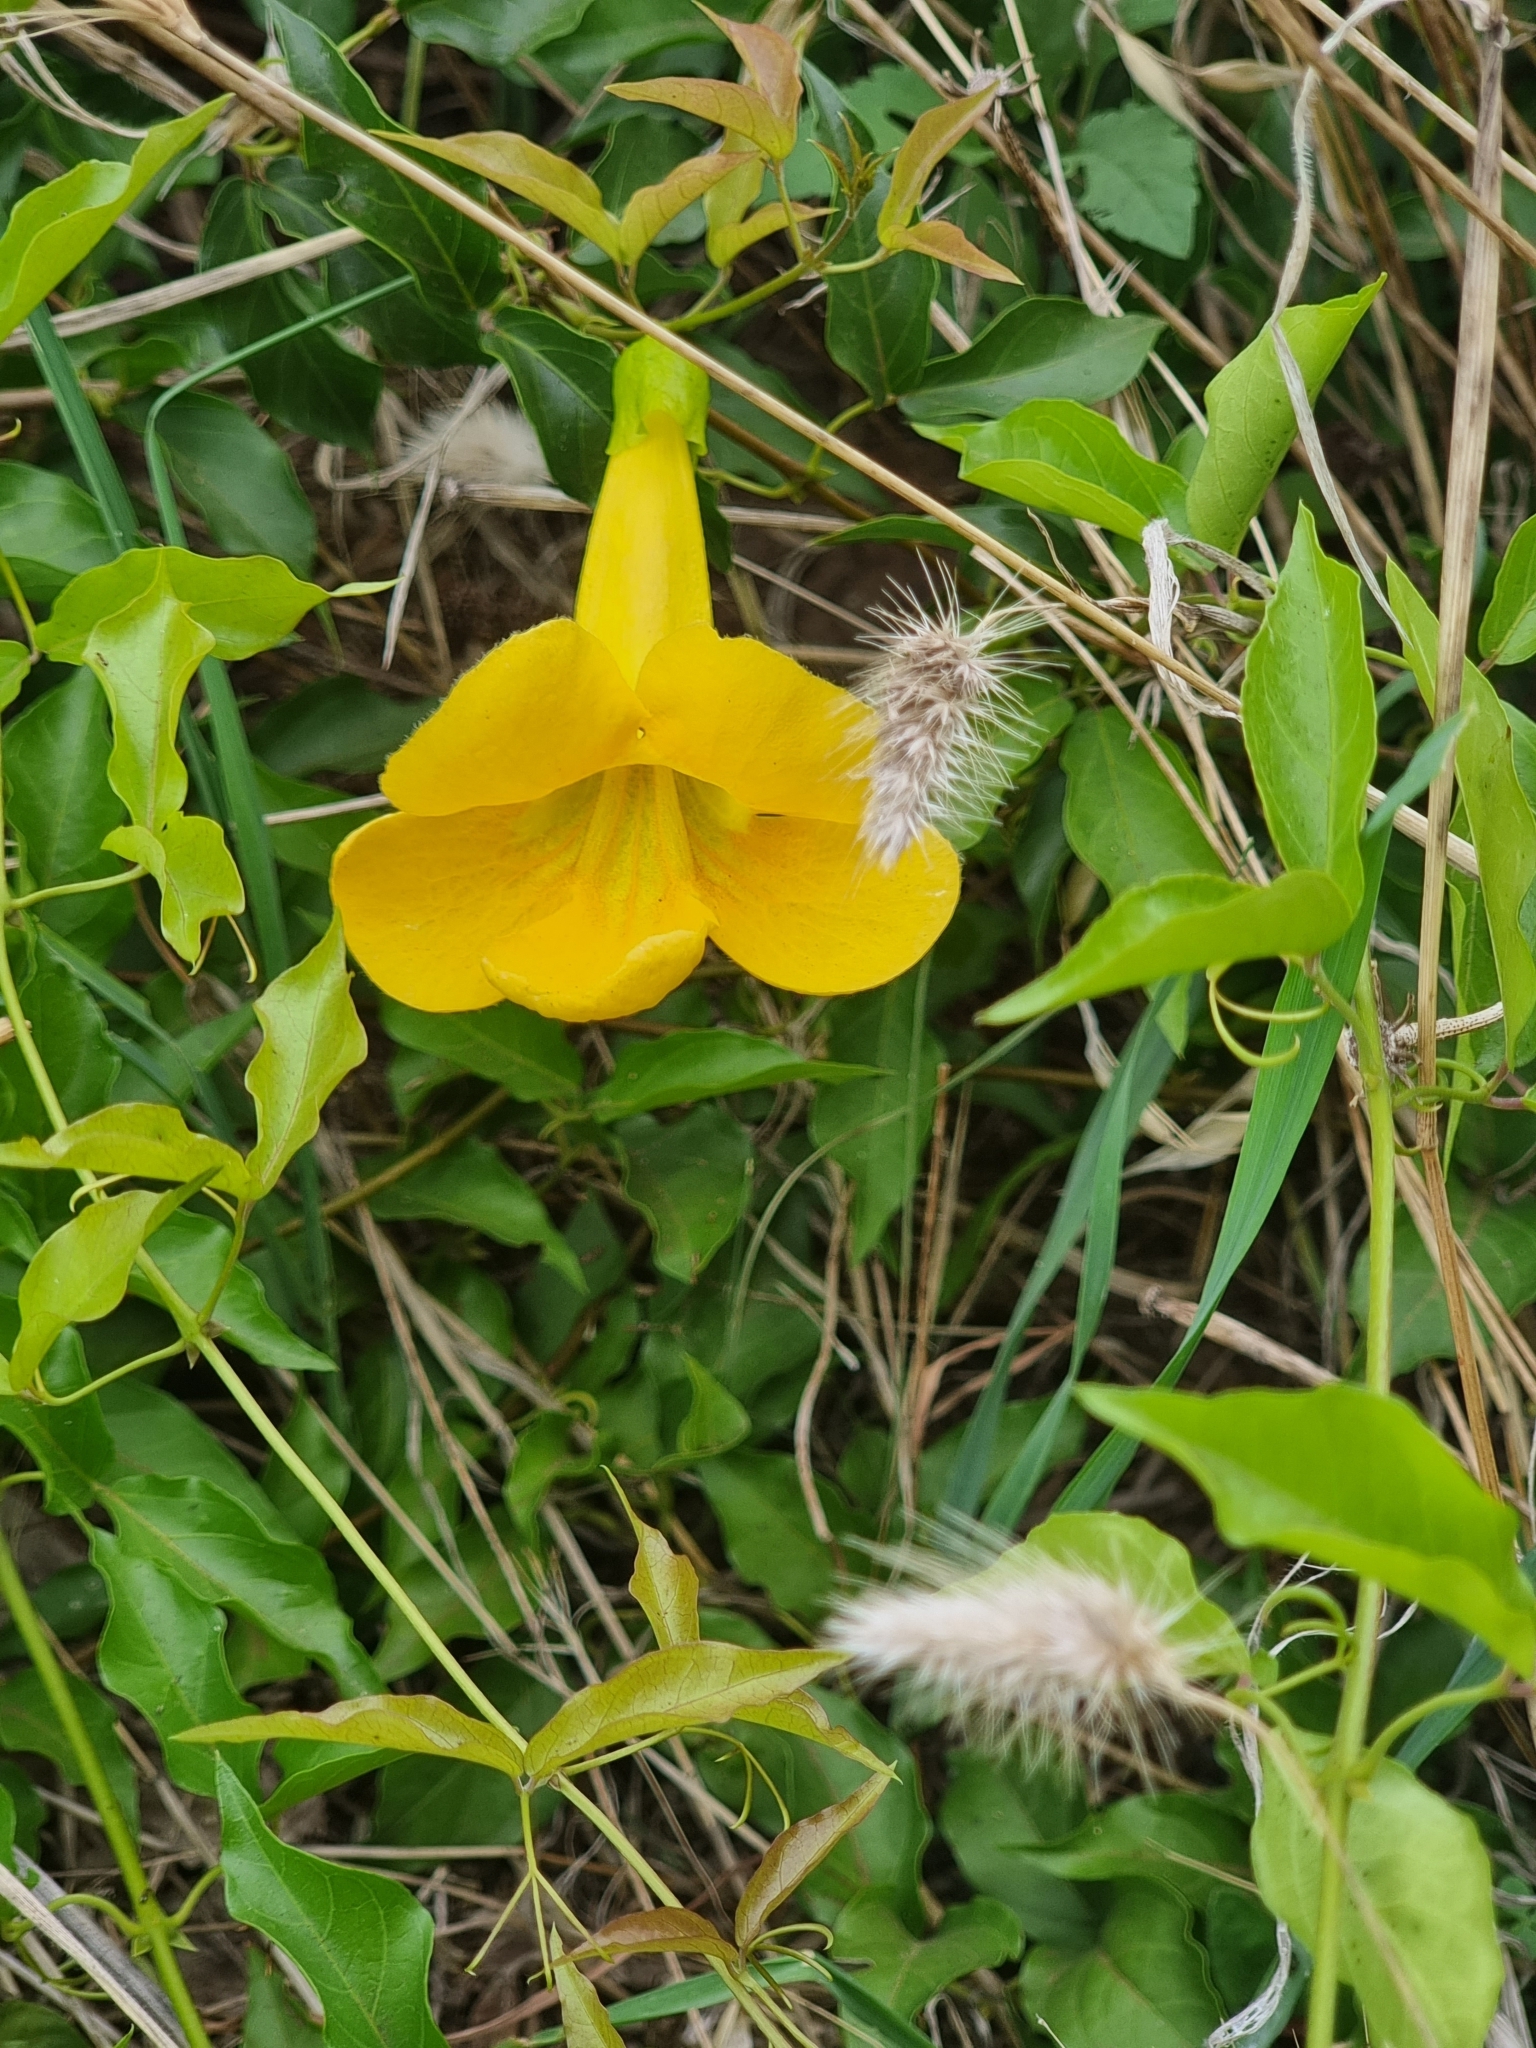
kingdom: Plantae
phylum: Tracheophyta
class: Magnoliopsida
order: Lamiales
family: Bignoniaceae
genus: Dolichandra
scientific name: Dolichandra unguis-cati
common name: Catclaw vine
